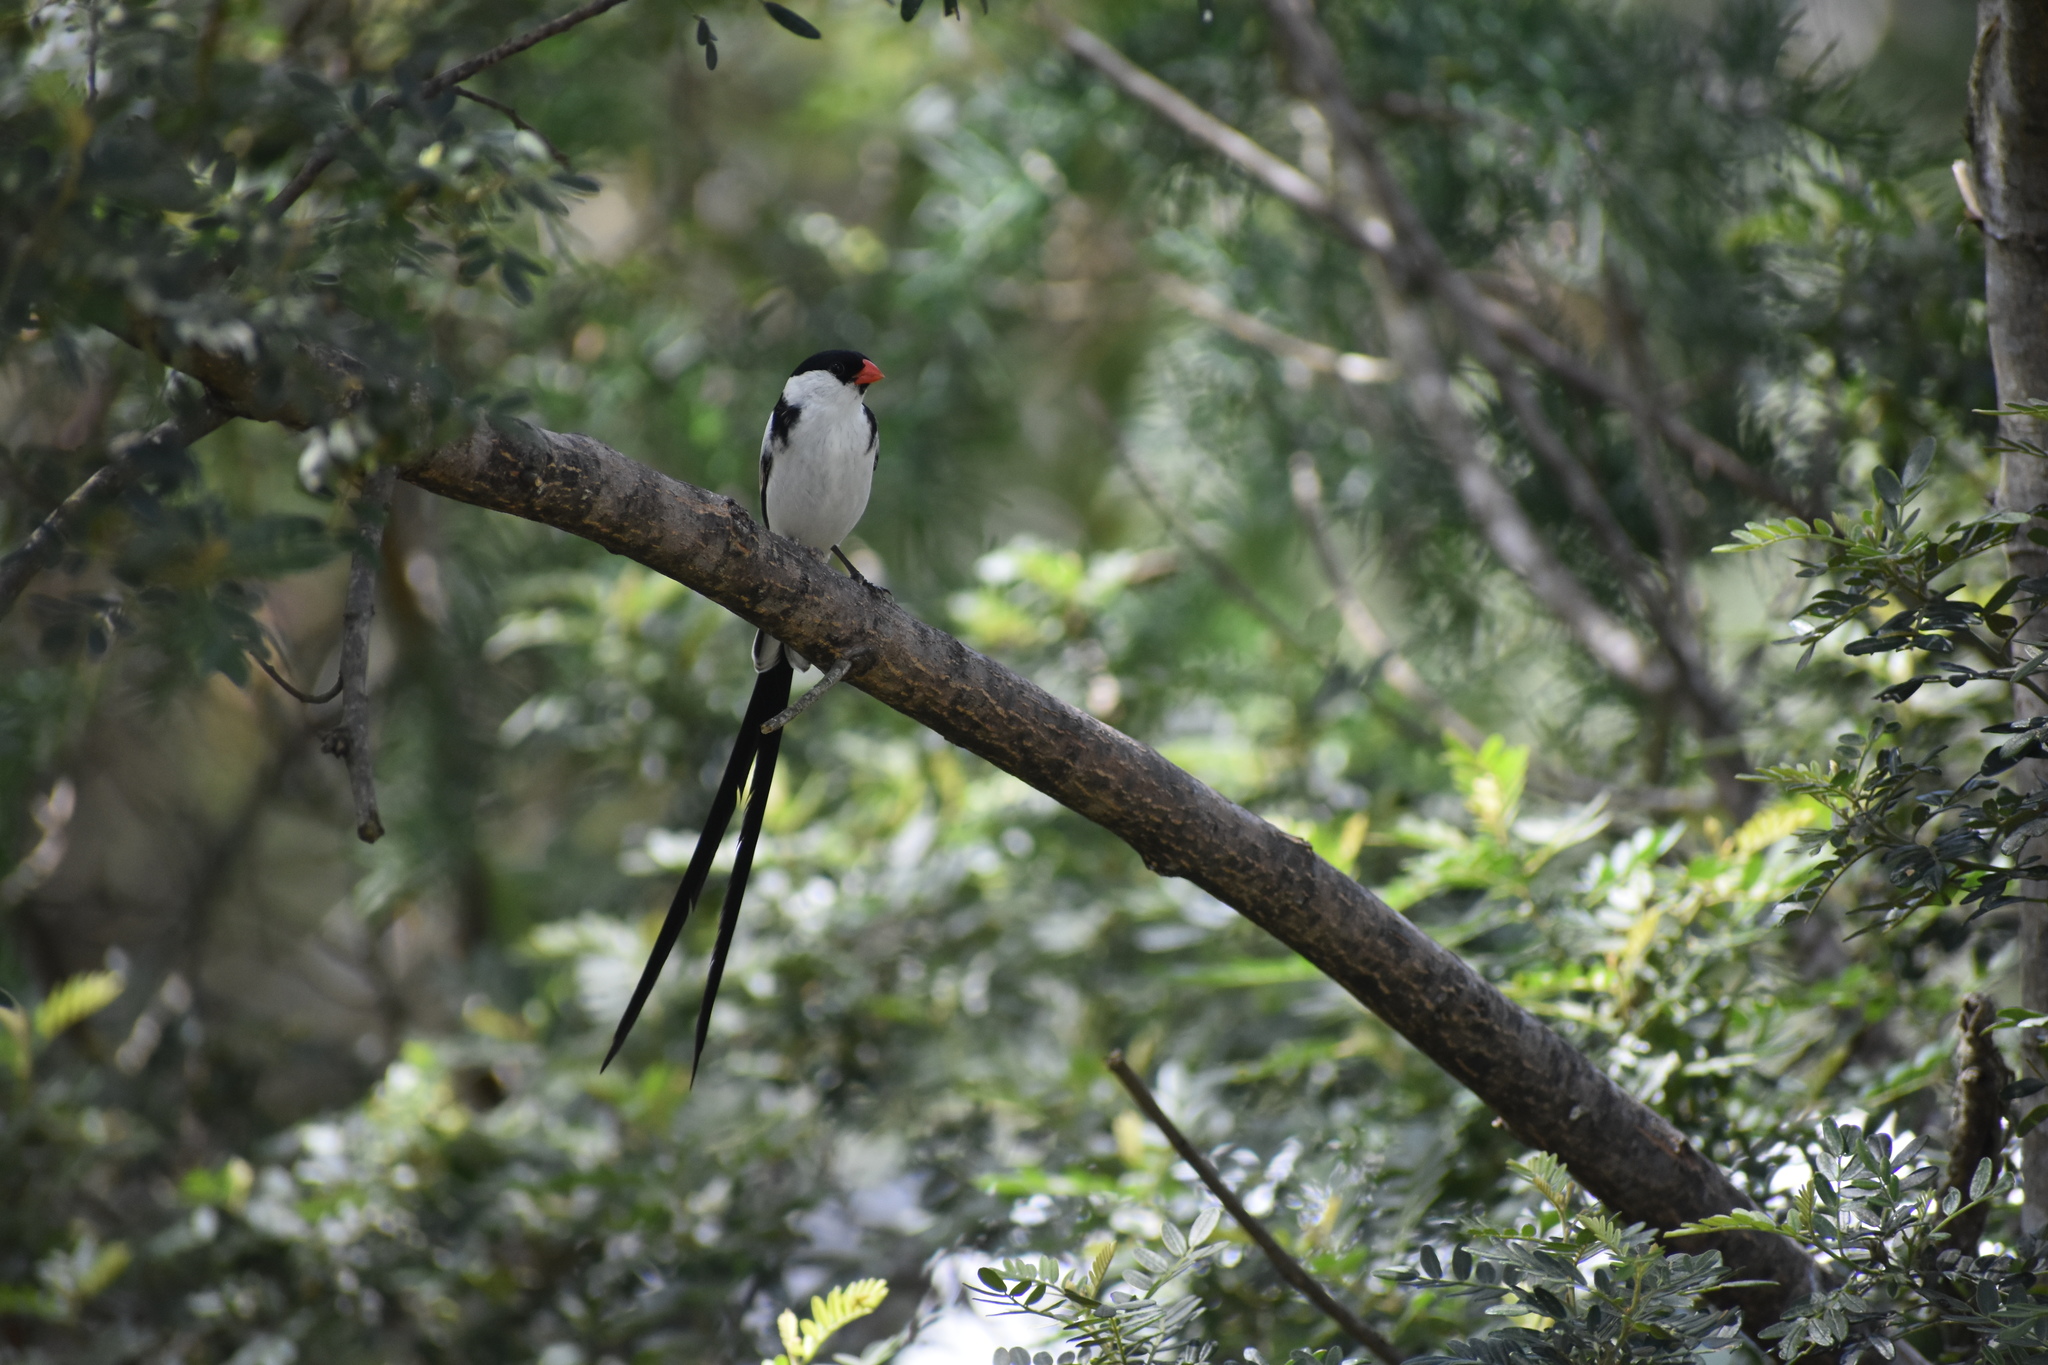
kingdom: Animalia
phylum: Chordata
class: Aves
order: Passeriformes
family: Viduidae
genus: Vidua
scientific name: Vidua macroura
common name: Pin-tailed whydah
